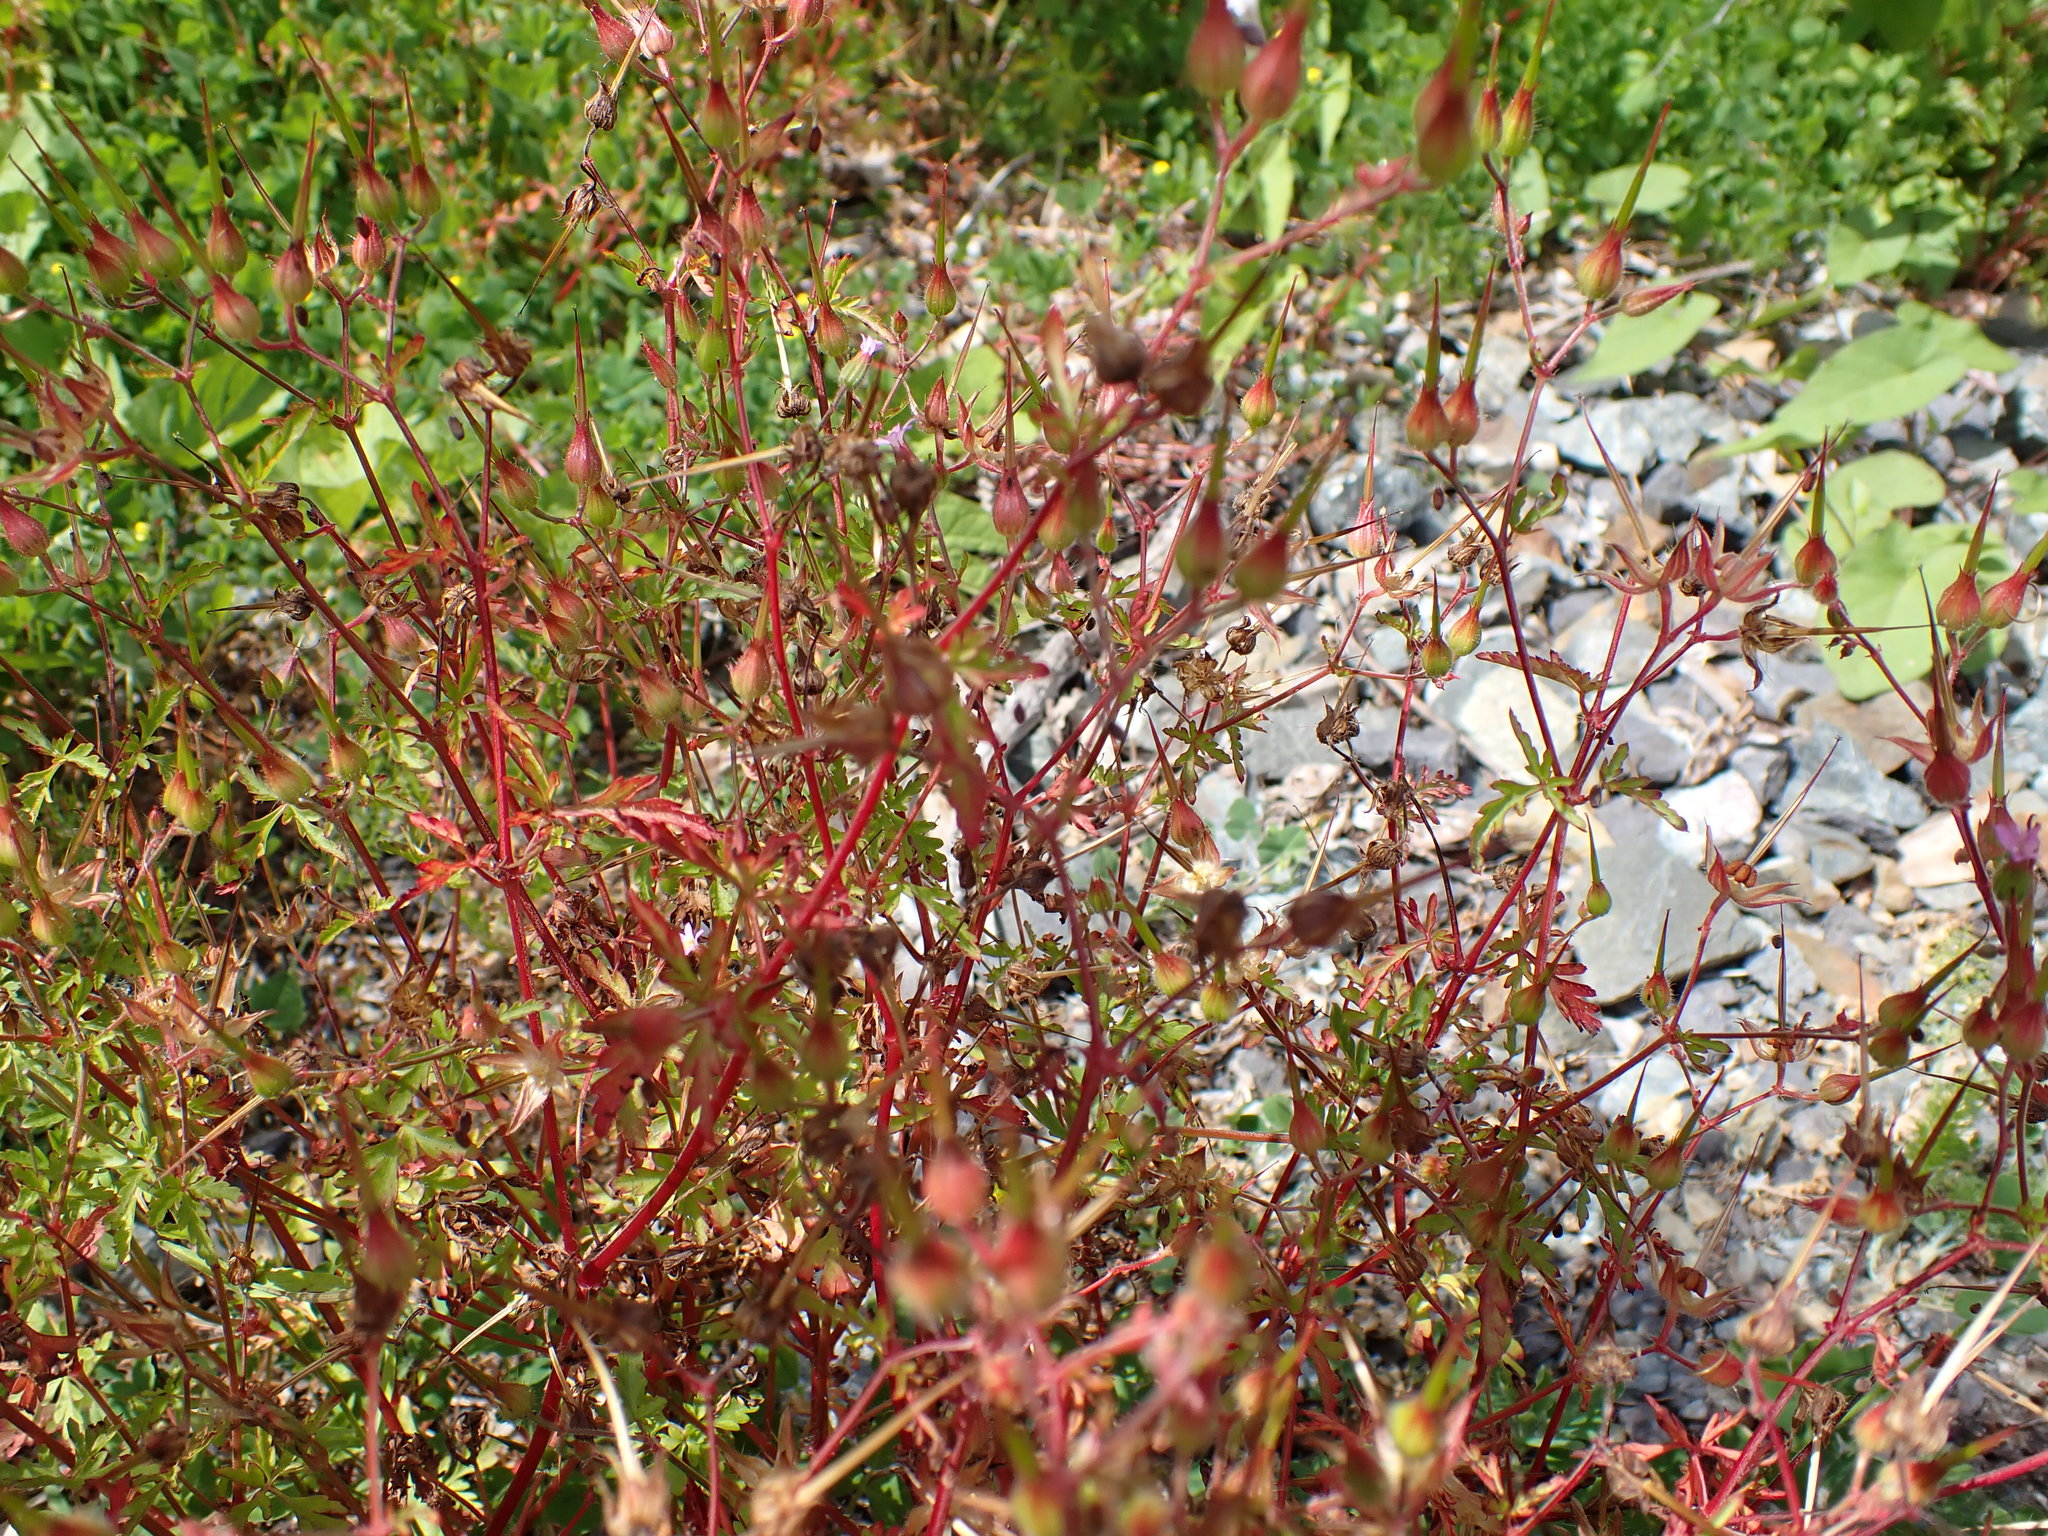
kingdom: Plantae
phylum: Tracheophyta
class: Magnoliopsida
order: Geraniales
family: Geraniaceae
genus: Geranium
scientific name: Geranium robertianum
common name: Herb-robert
